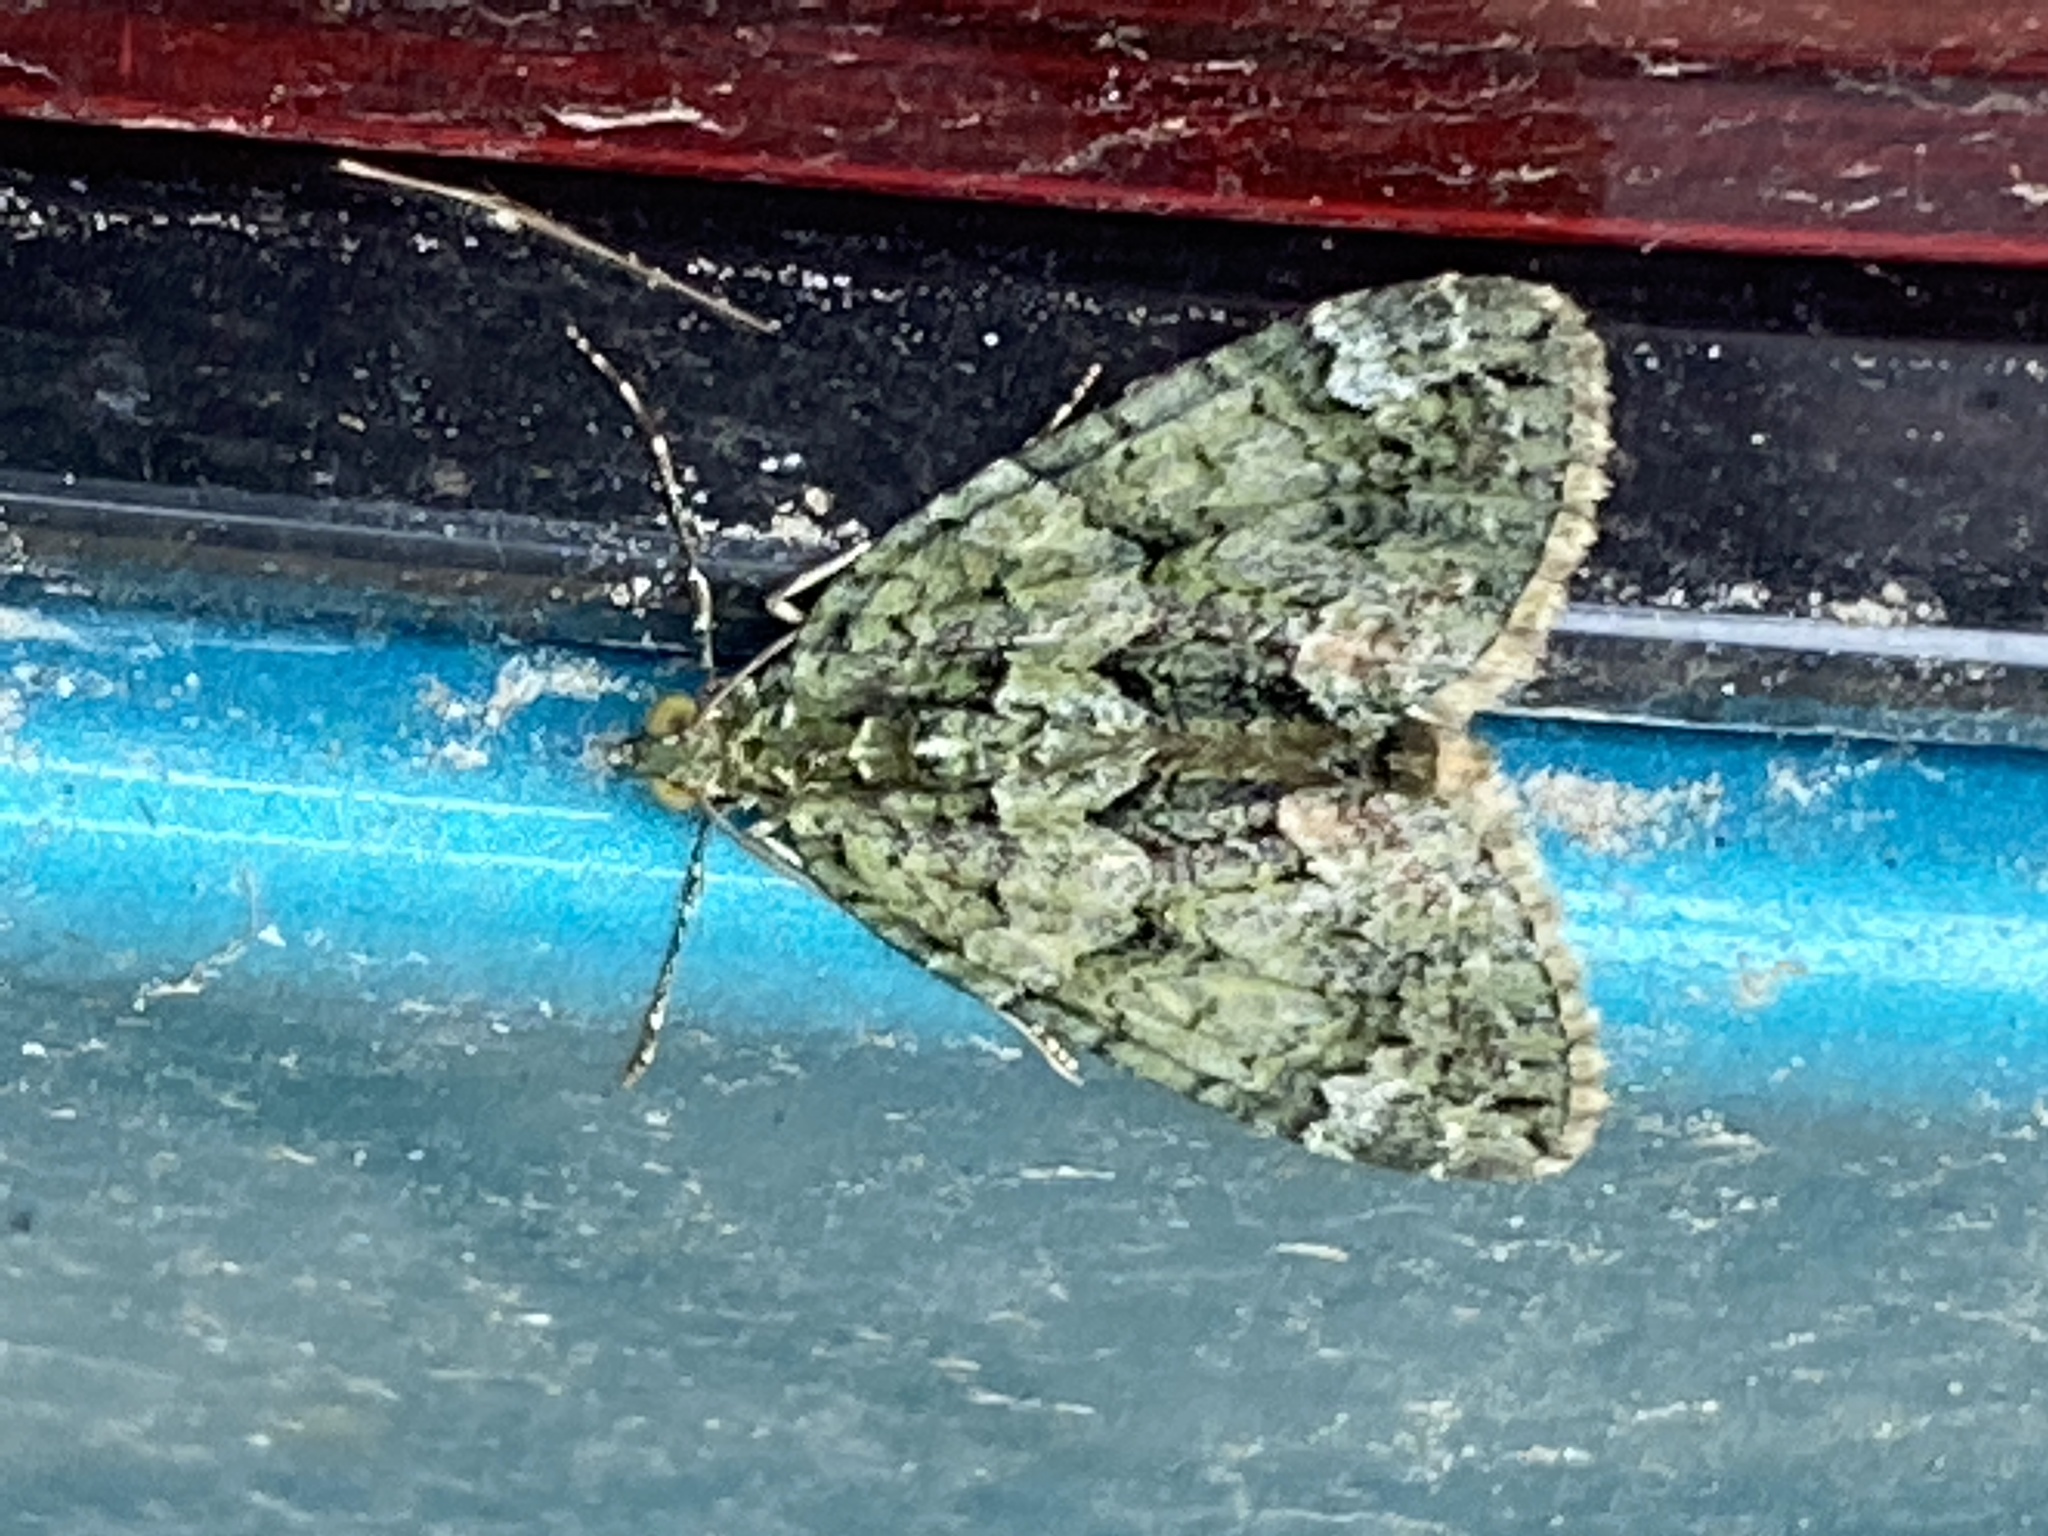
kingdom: Animalia
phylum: Arthropoda
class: Insecta
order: Lepidoptera
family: Geometridae
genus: Chloroclysta
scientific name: Chloroclysta siterata
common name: Red-green carpet
